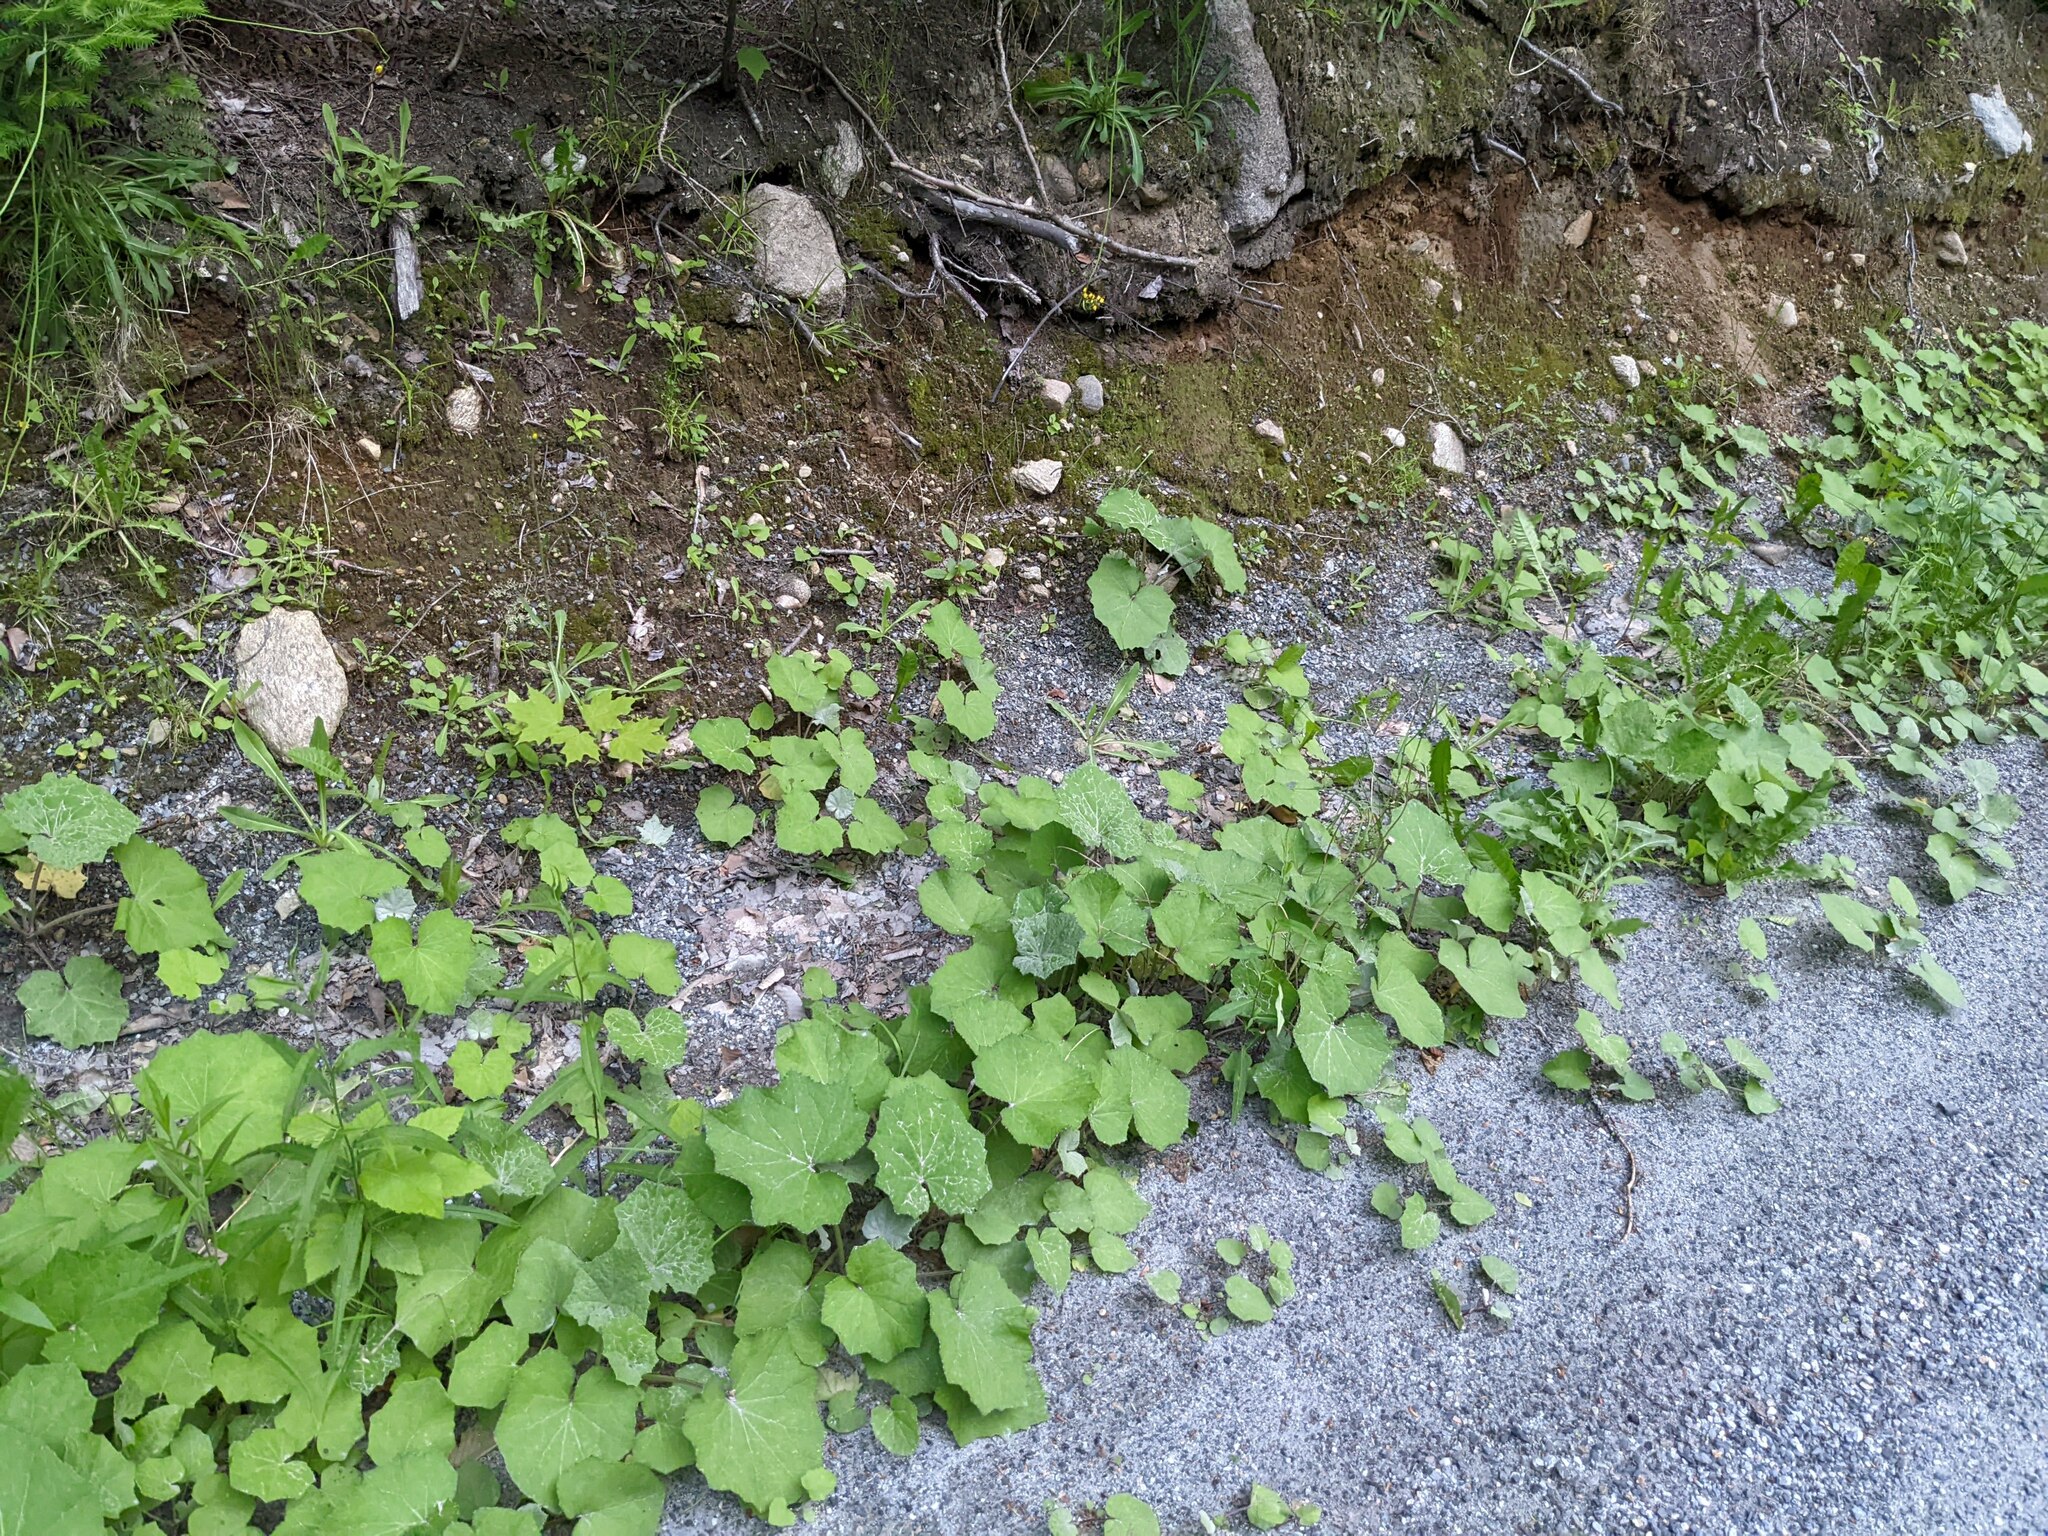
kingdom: Plantae
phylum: Tracheophyta
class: Magnoliopsida
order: Asterales
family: Asteraceae
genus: Tussilago
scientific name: Tussilago farfara
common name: Coltsfoot
